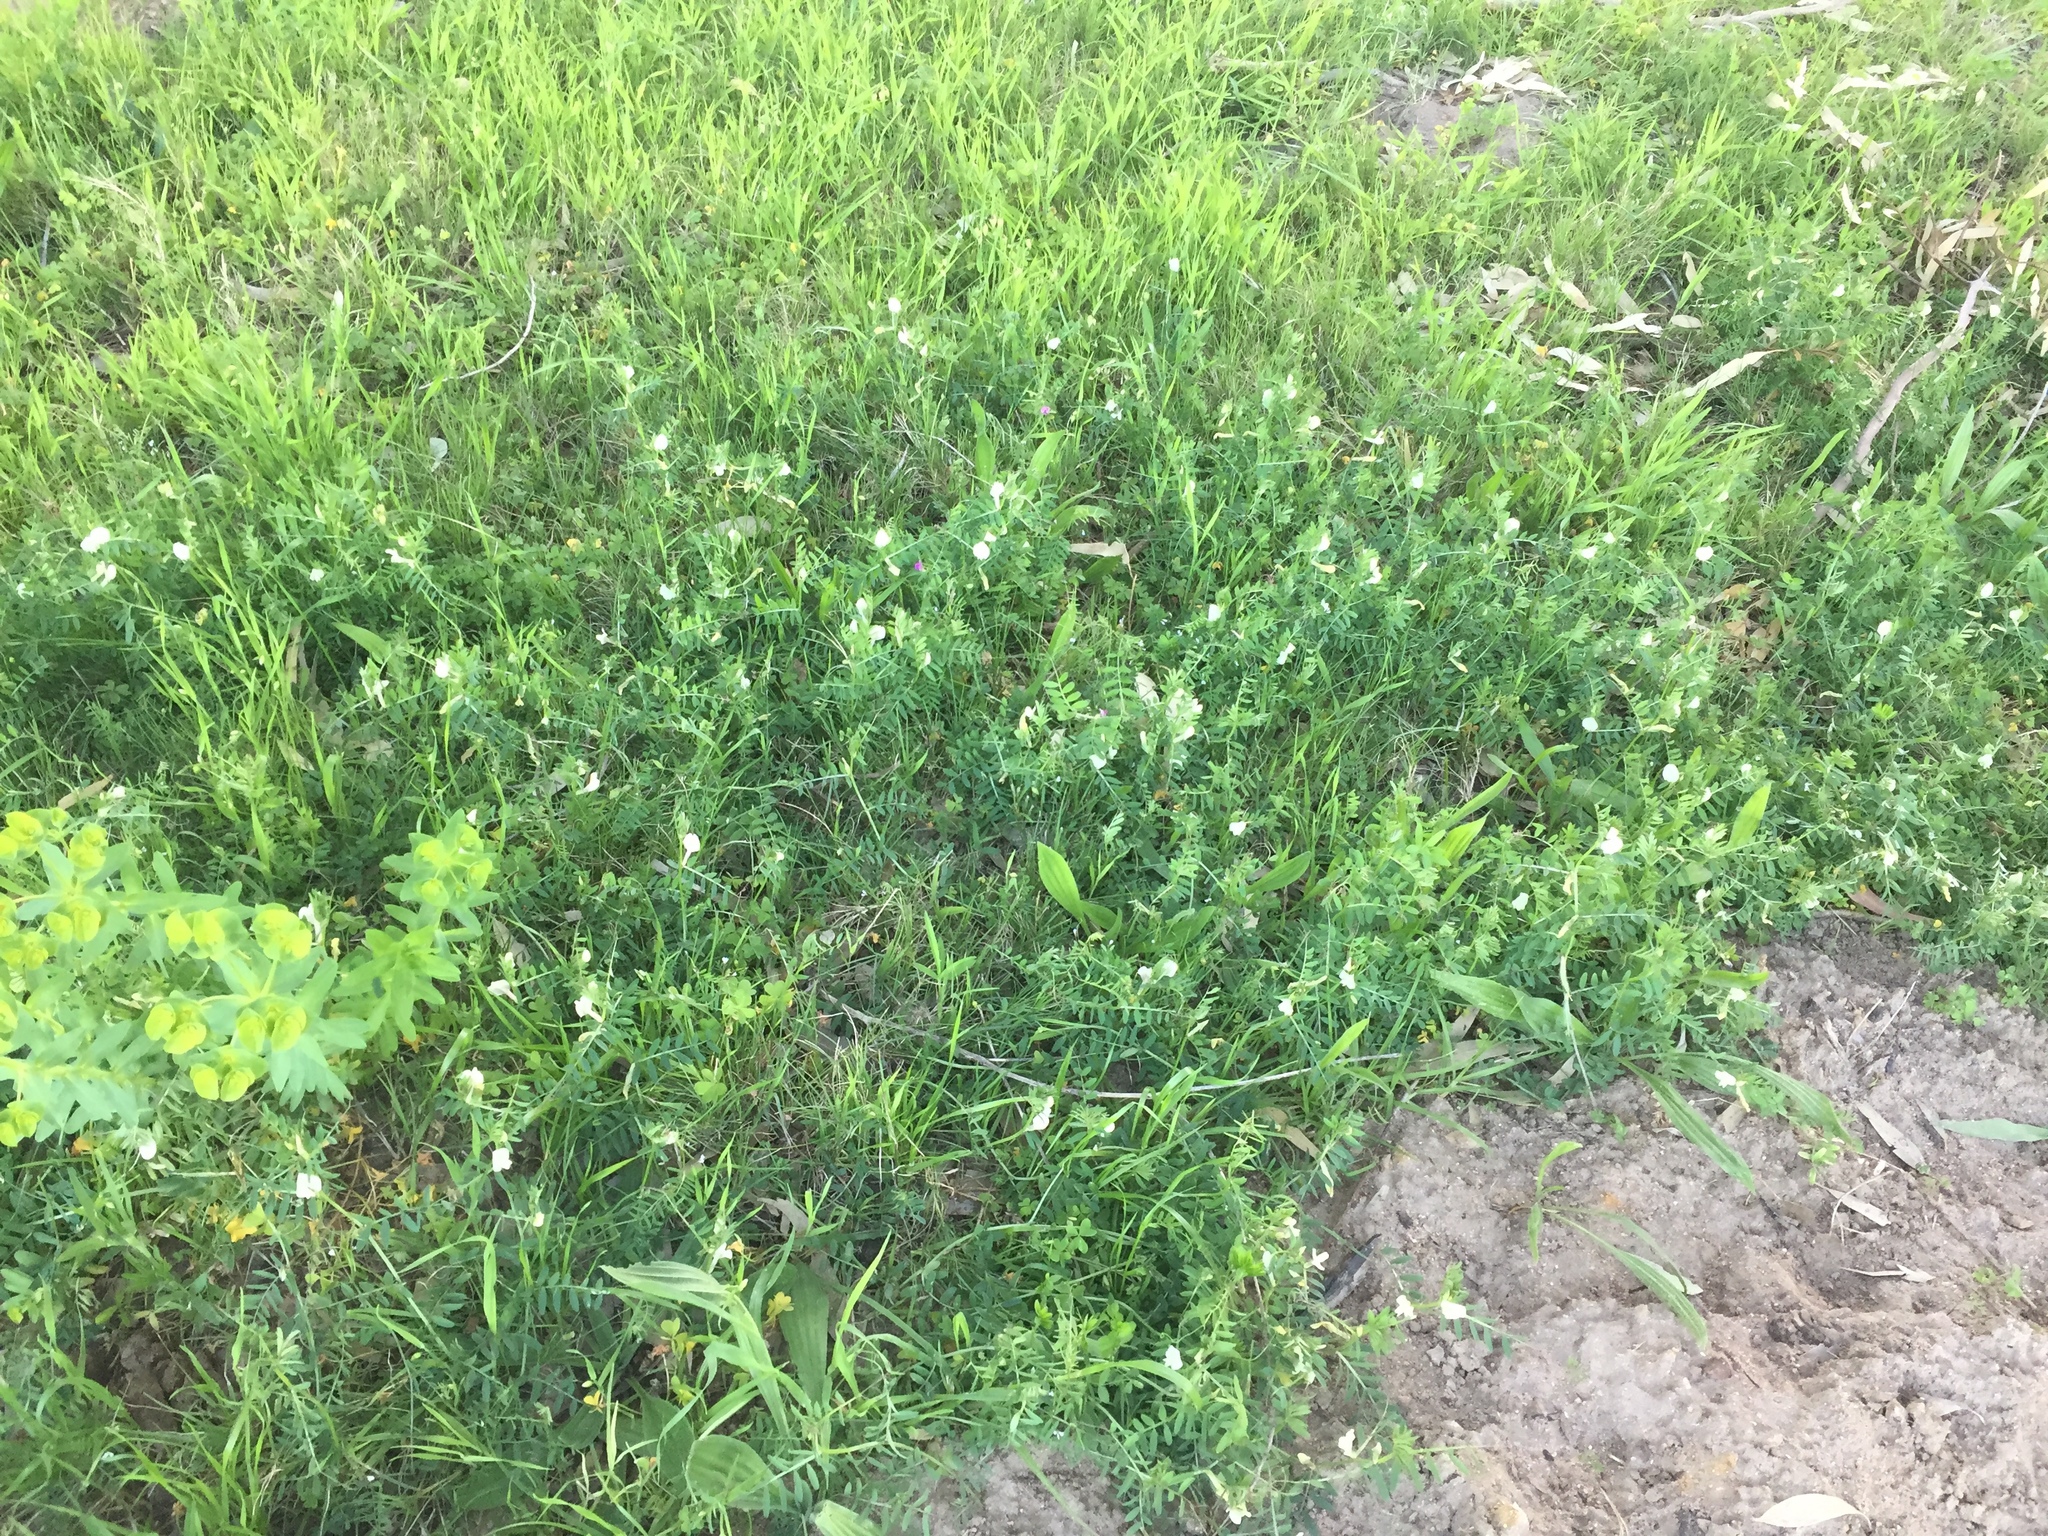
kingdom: Plantae
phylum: Tracheophyta
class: Magnoliopsida
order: Fabales
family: Fabaceae
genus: Vicia
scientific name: Vicia lutea
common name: Smooth yellow vetch
